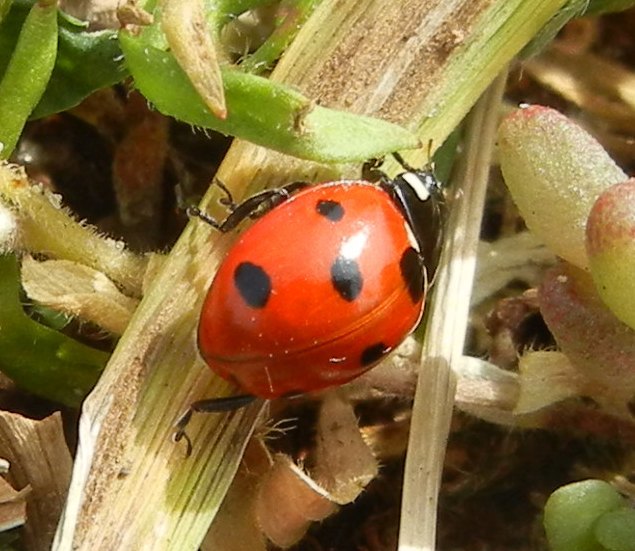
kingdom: Animalia
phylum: Arthropoda
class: Insecta
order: Coleoptera
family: Coccinellidae
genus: Coccinella
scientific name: Coccinella septempunctata
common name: Sevenspotted lady beetle
